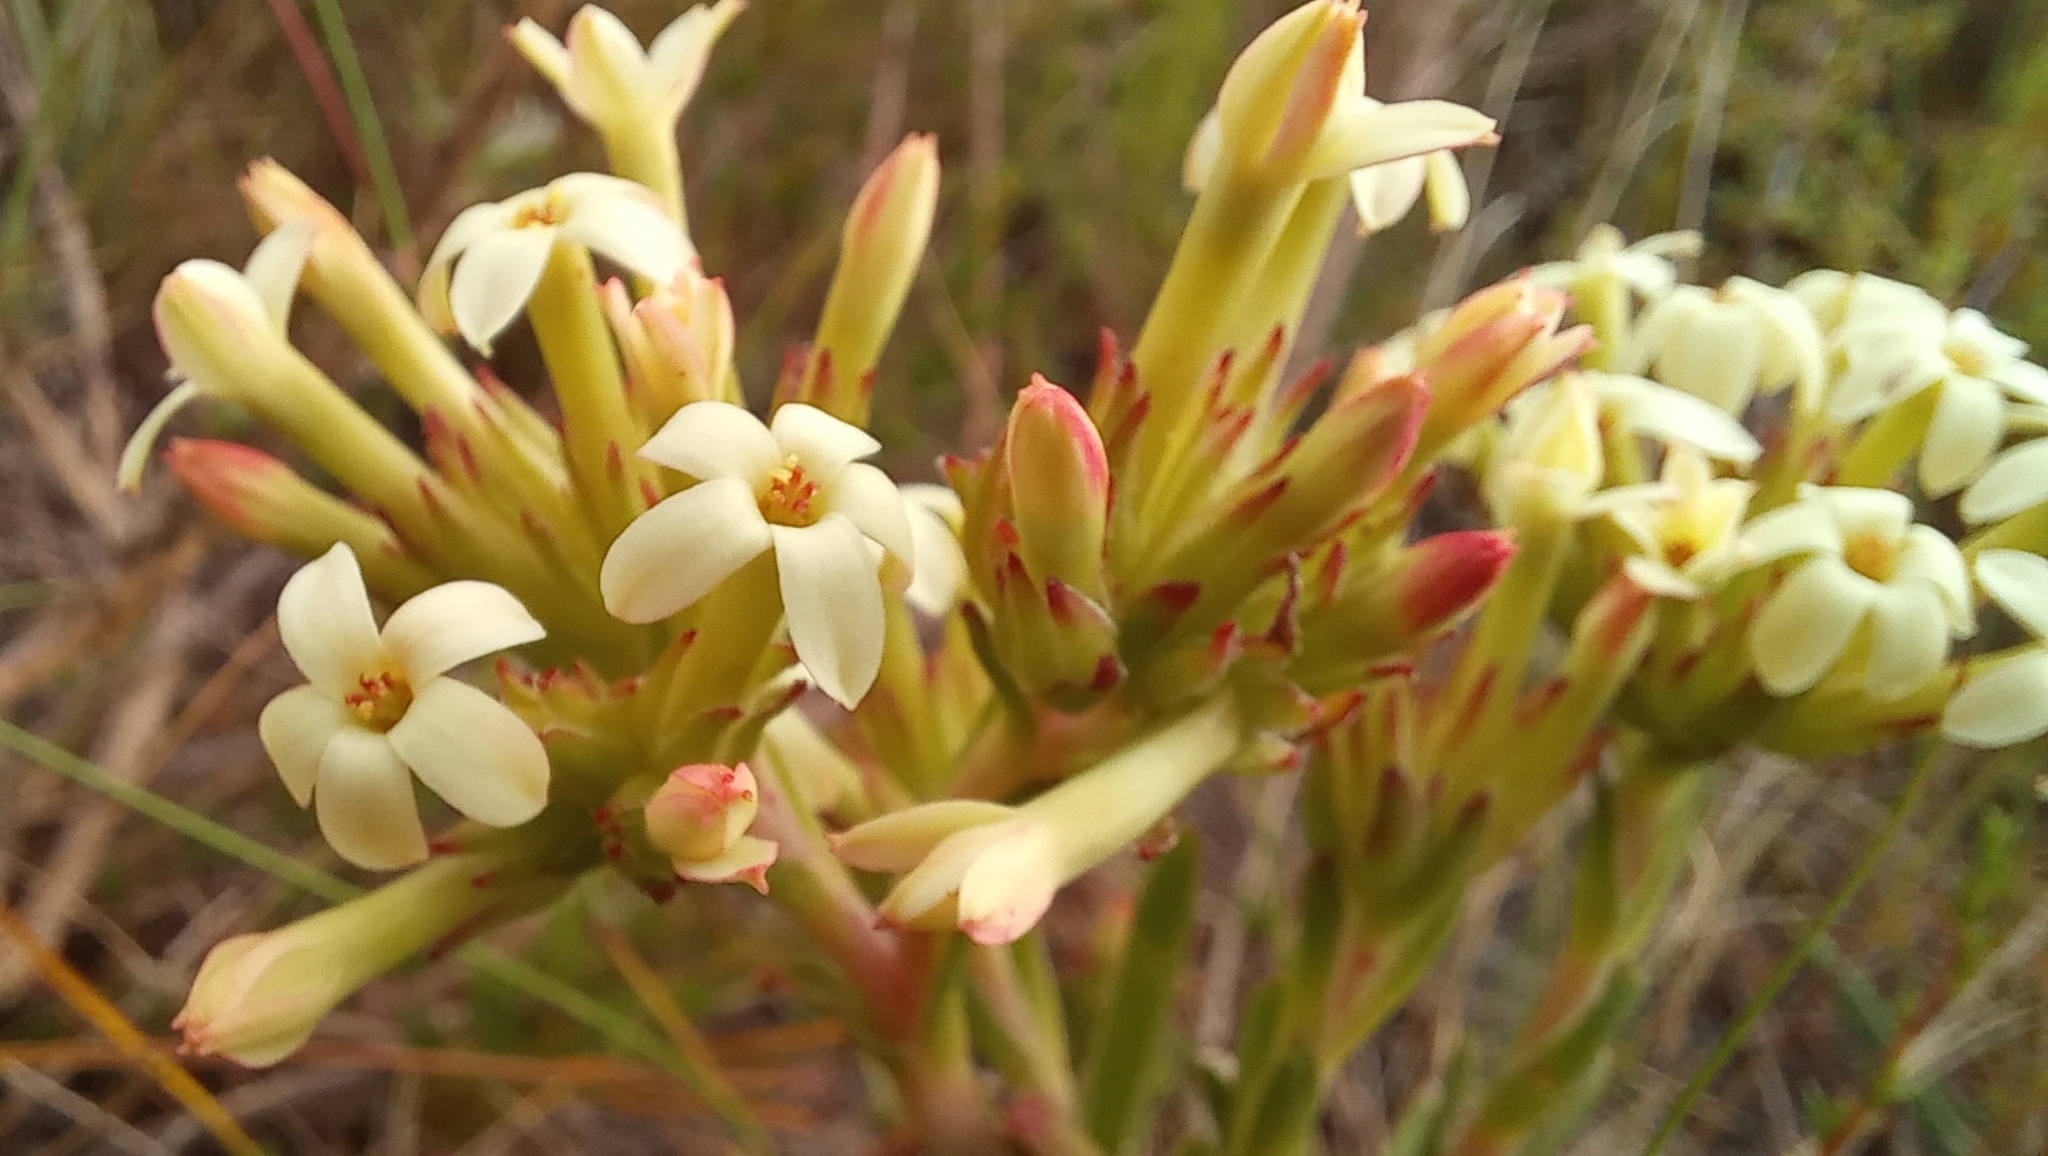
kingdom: Plantae
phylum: Tracheophyta
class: Magnoliopsida
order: Saxifragales
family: Crassulaceae
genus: Crassula
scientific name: Crassula fascicularis
